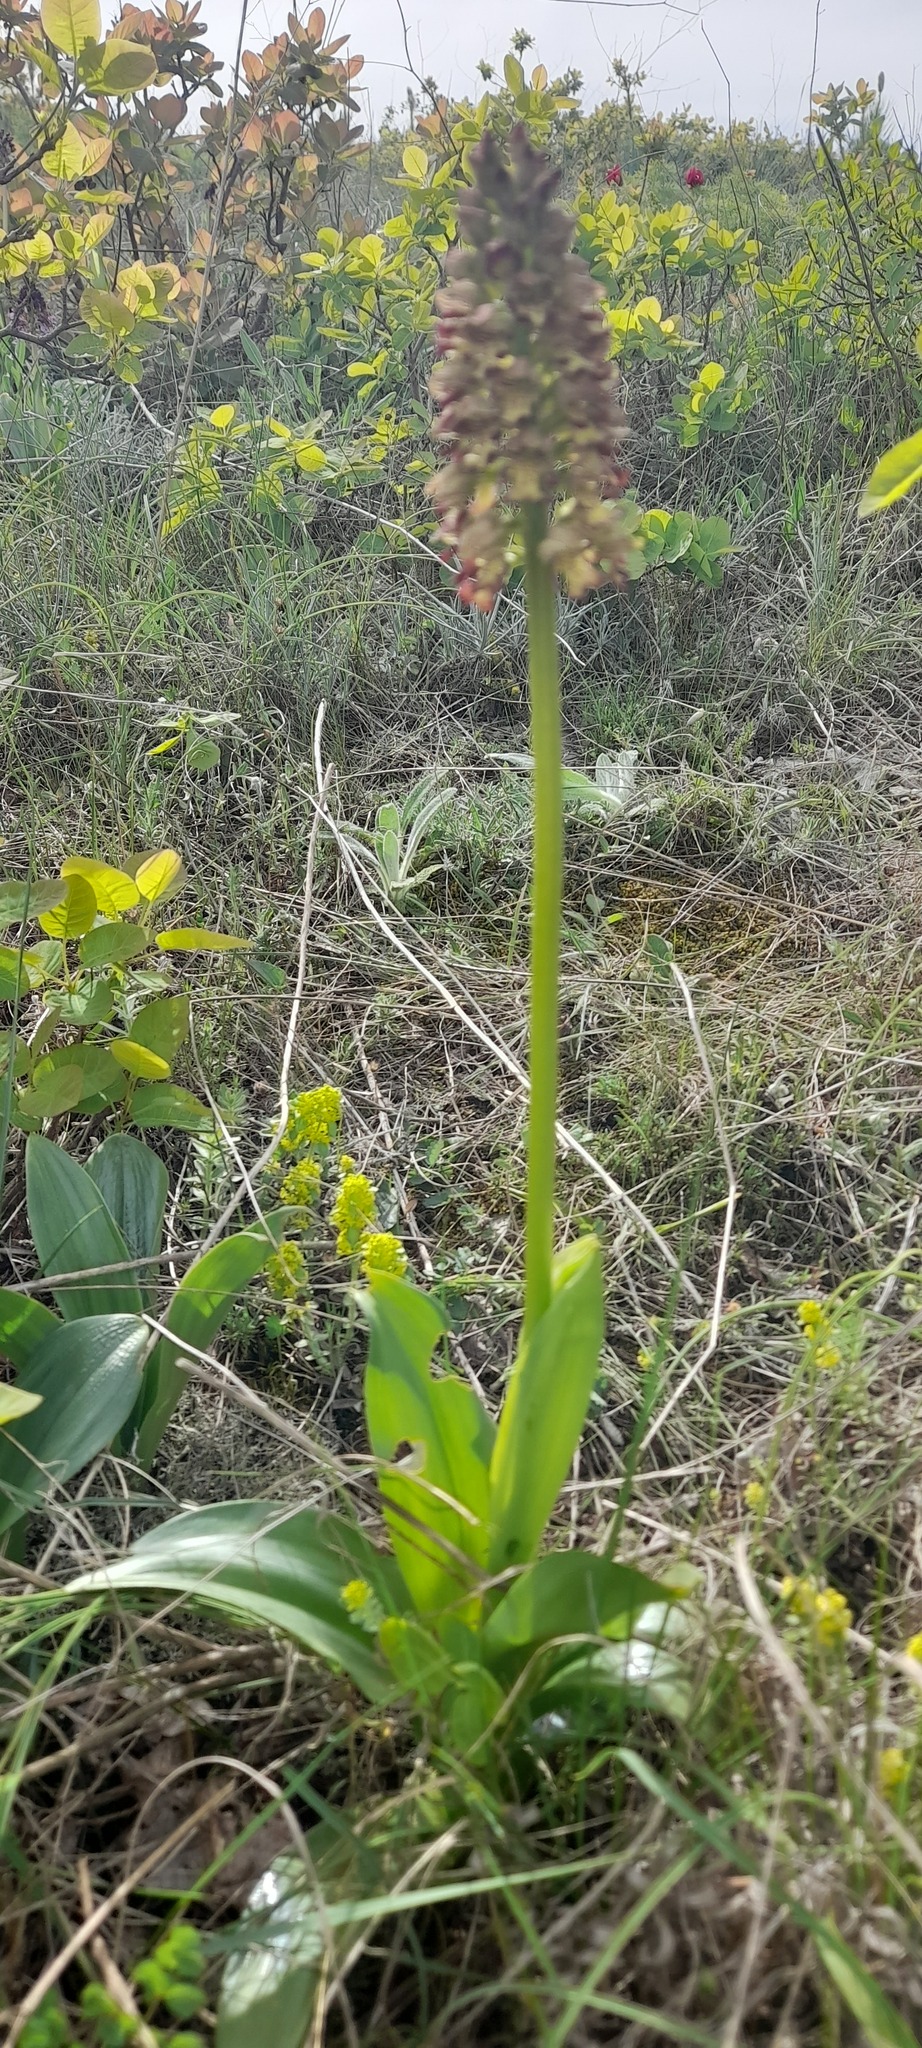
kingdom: Plantae
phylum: Tracheophyta
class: Liliopsida
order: Asparagales
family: Orchidaceae
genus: Orchis
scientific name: Orchis wulffiana
